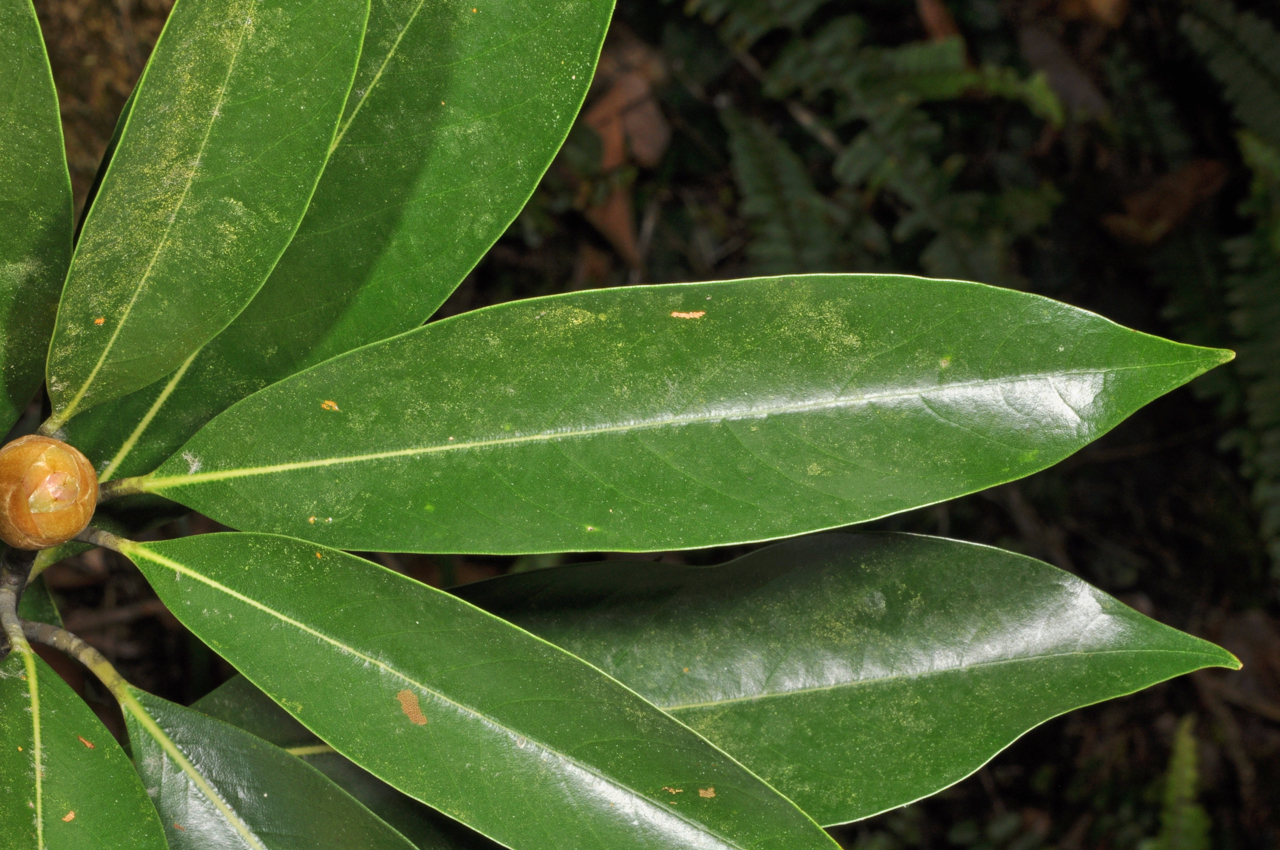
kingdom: Plantae
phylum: Tracheophyta
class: Magnoliopsida
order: Laurales
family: Lauraceae
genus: Machilus
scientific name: Machilus japonica
